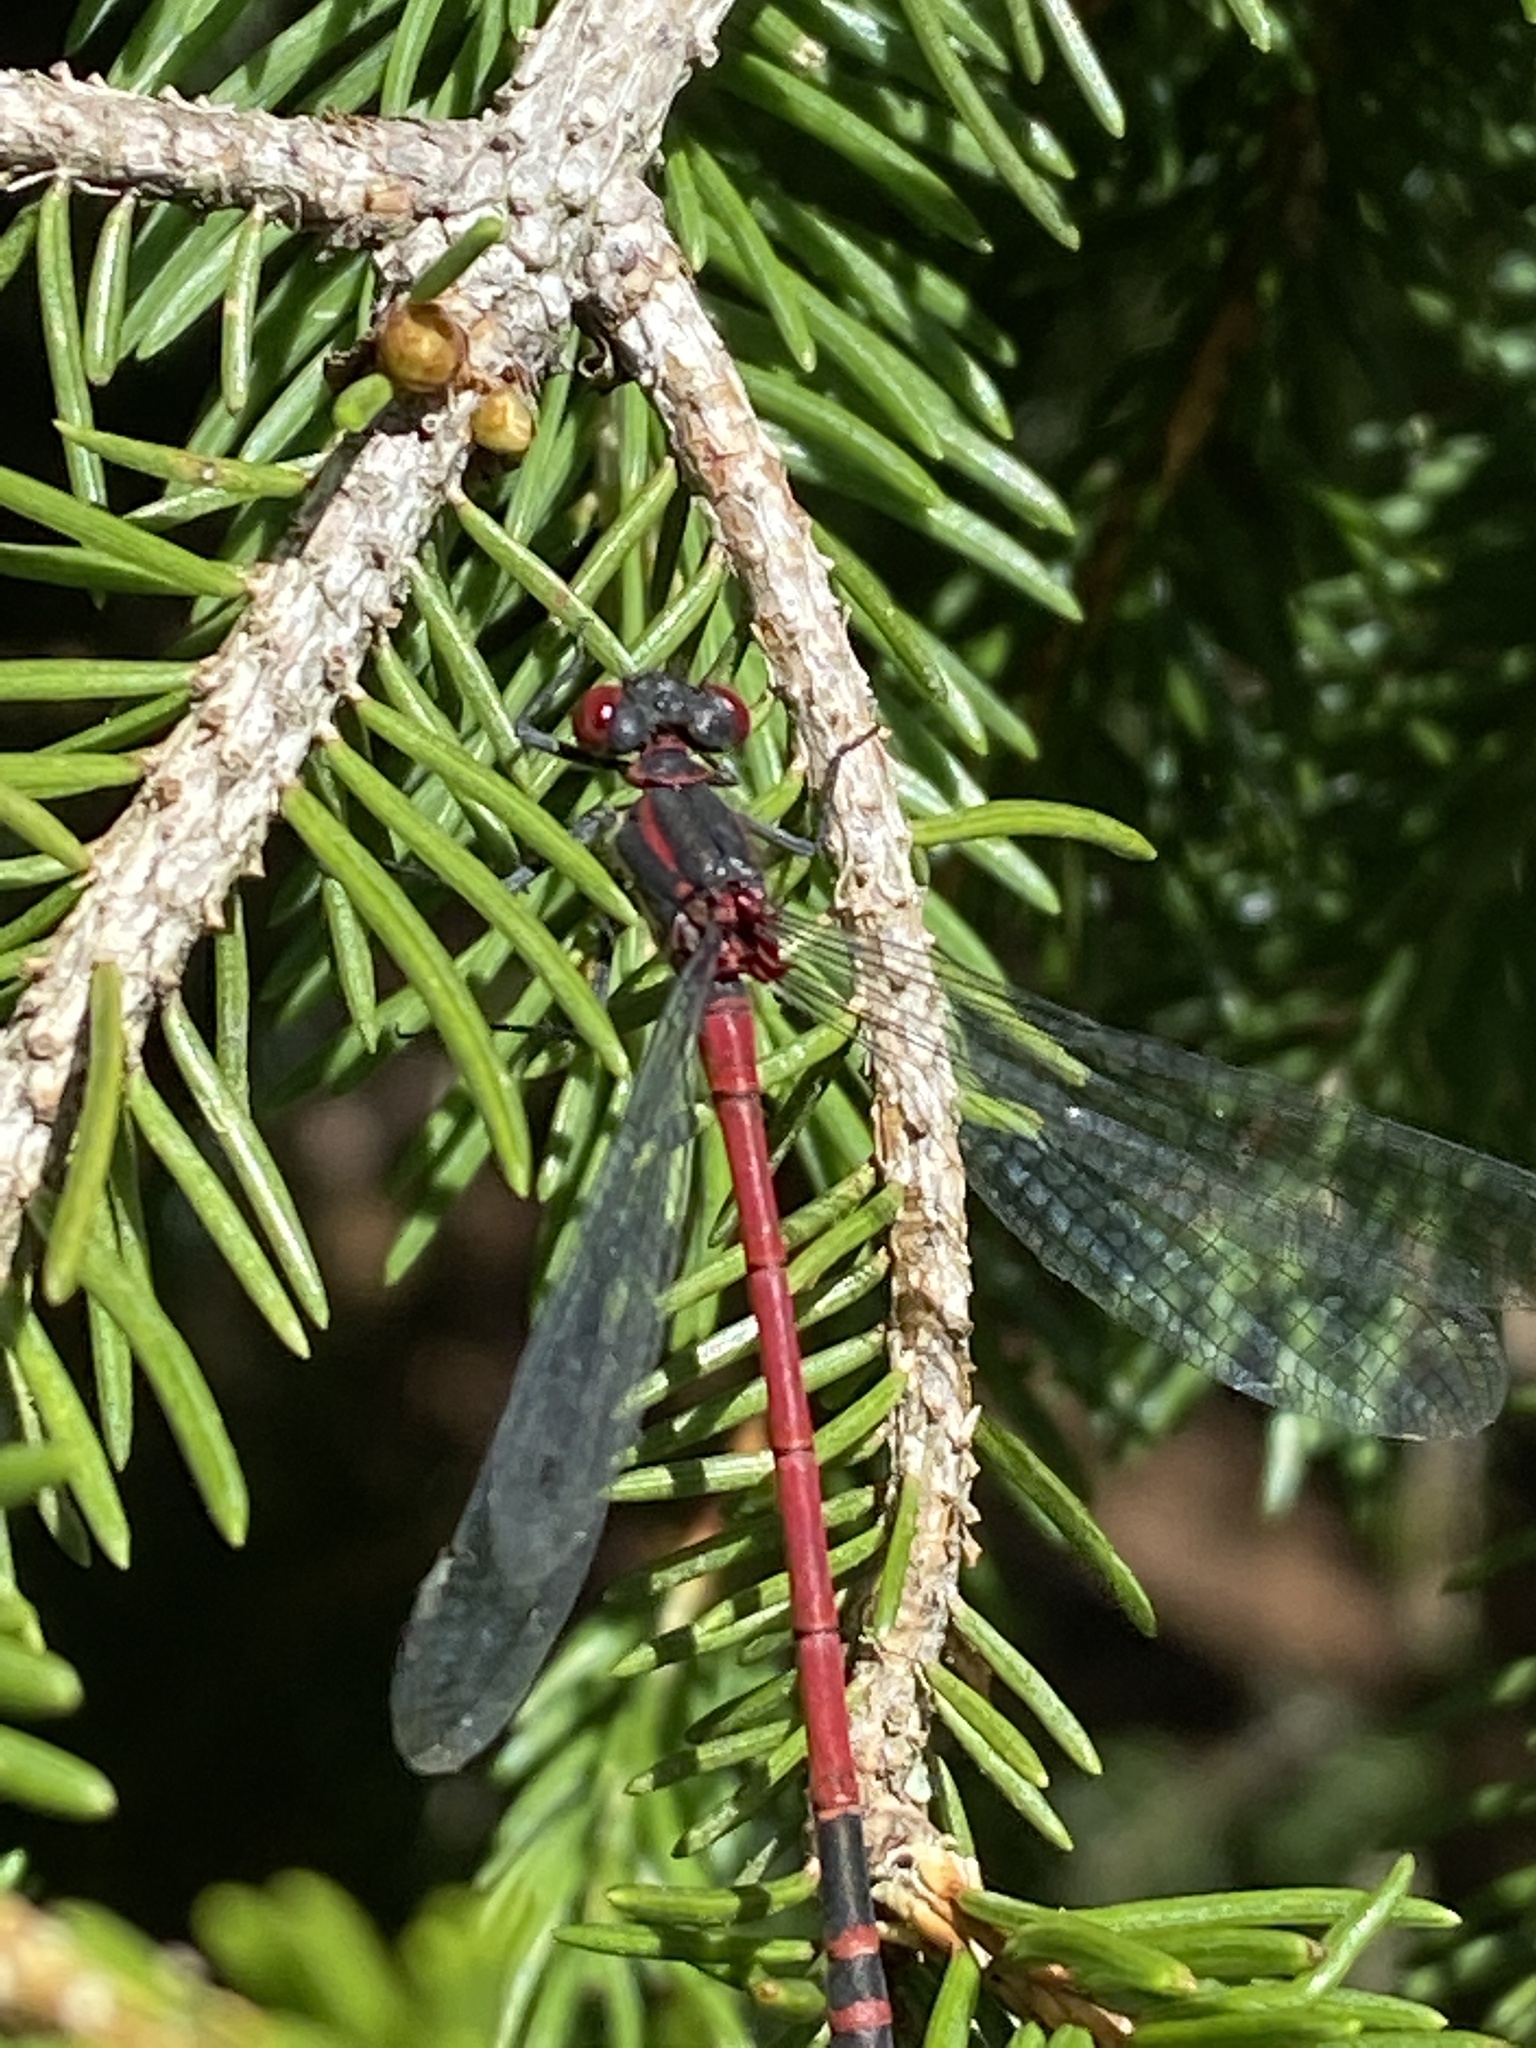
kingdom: Animalia
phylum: Arthropoda
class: Insecta
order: Odonata
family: Coenagrionidae
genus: Pyrrhosoma
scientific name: Pyrrhosoma nymphula
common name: Large red damsel
